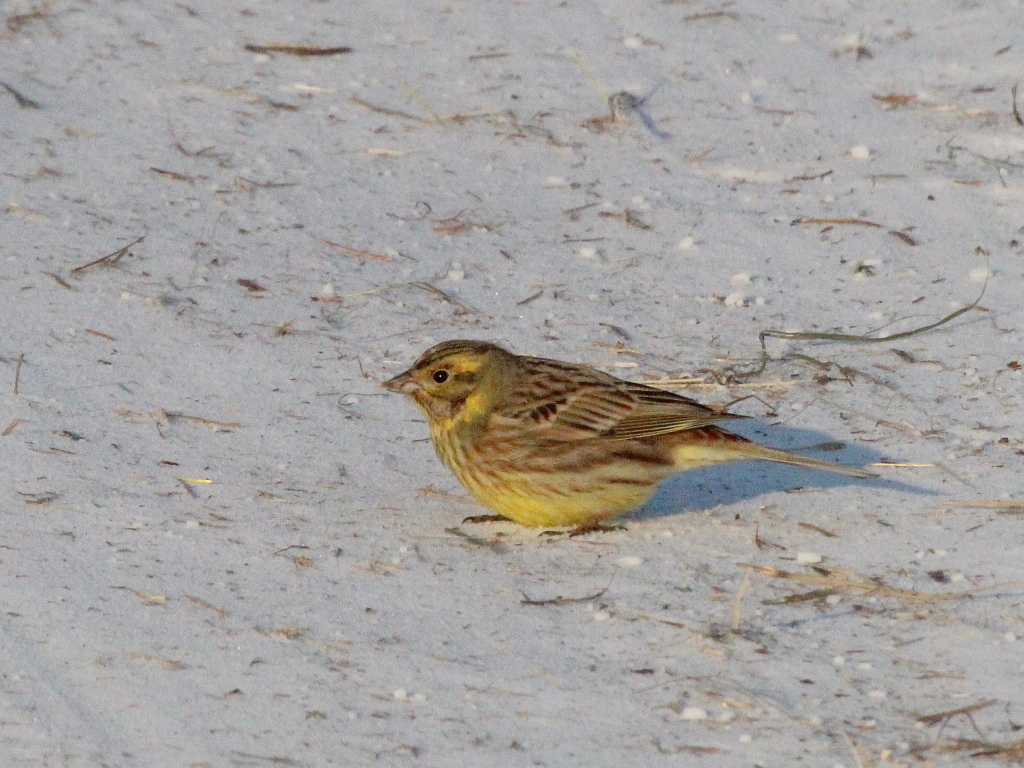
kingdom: Animalia
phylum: Chordata
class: Aves
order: Passeriformes
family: Emberizidae
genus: Emberiza
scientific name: Emberiza
